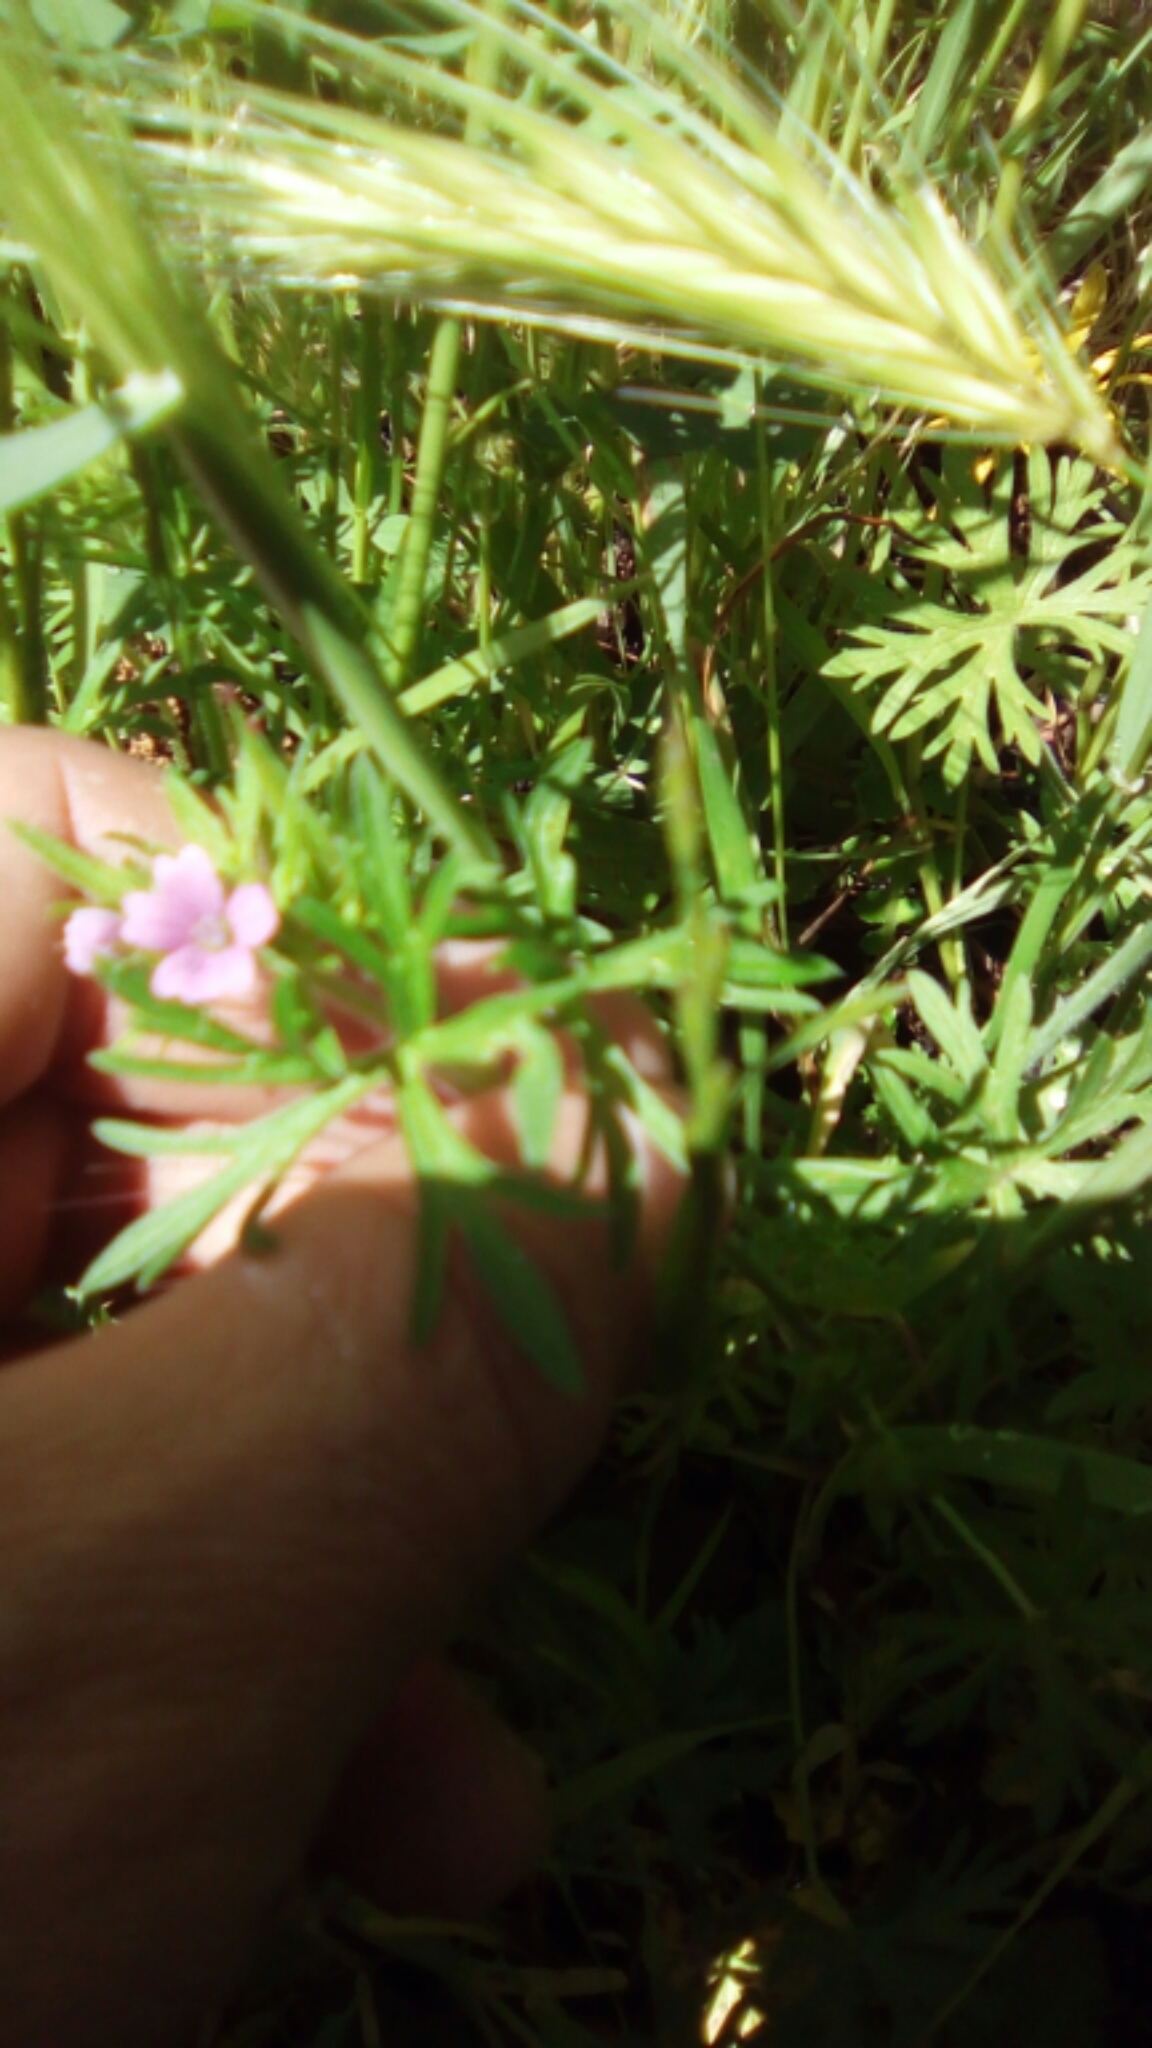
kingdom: Plantae
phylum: Tracheophyta
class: Magnoliopsida
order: Geraniales
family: Geraniaceae
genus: Geranium
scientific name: Geranium dissectum
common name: Cut-leaved crane's-bill
